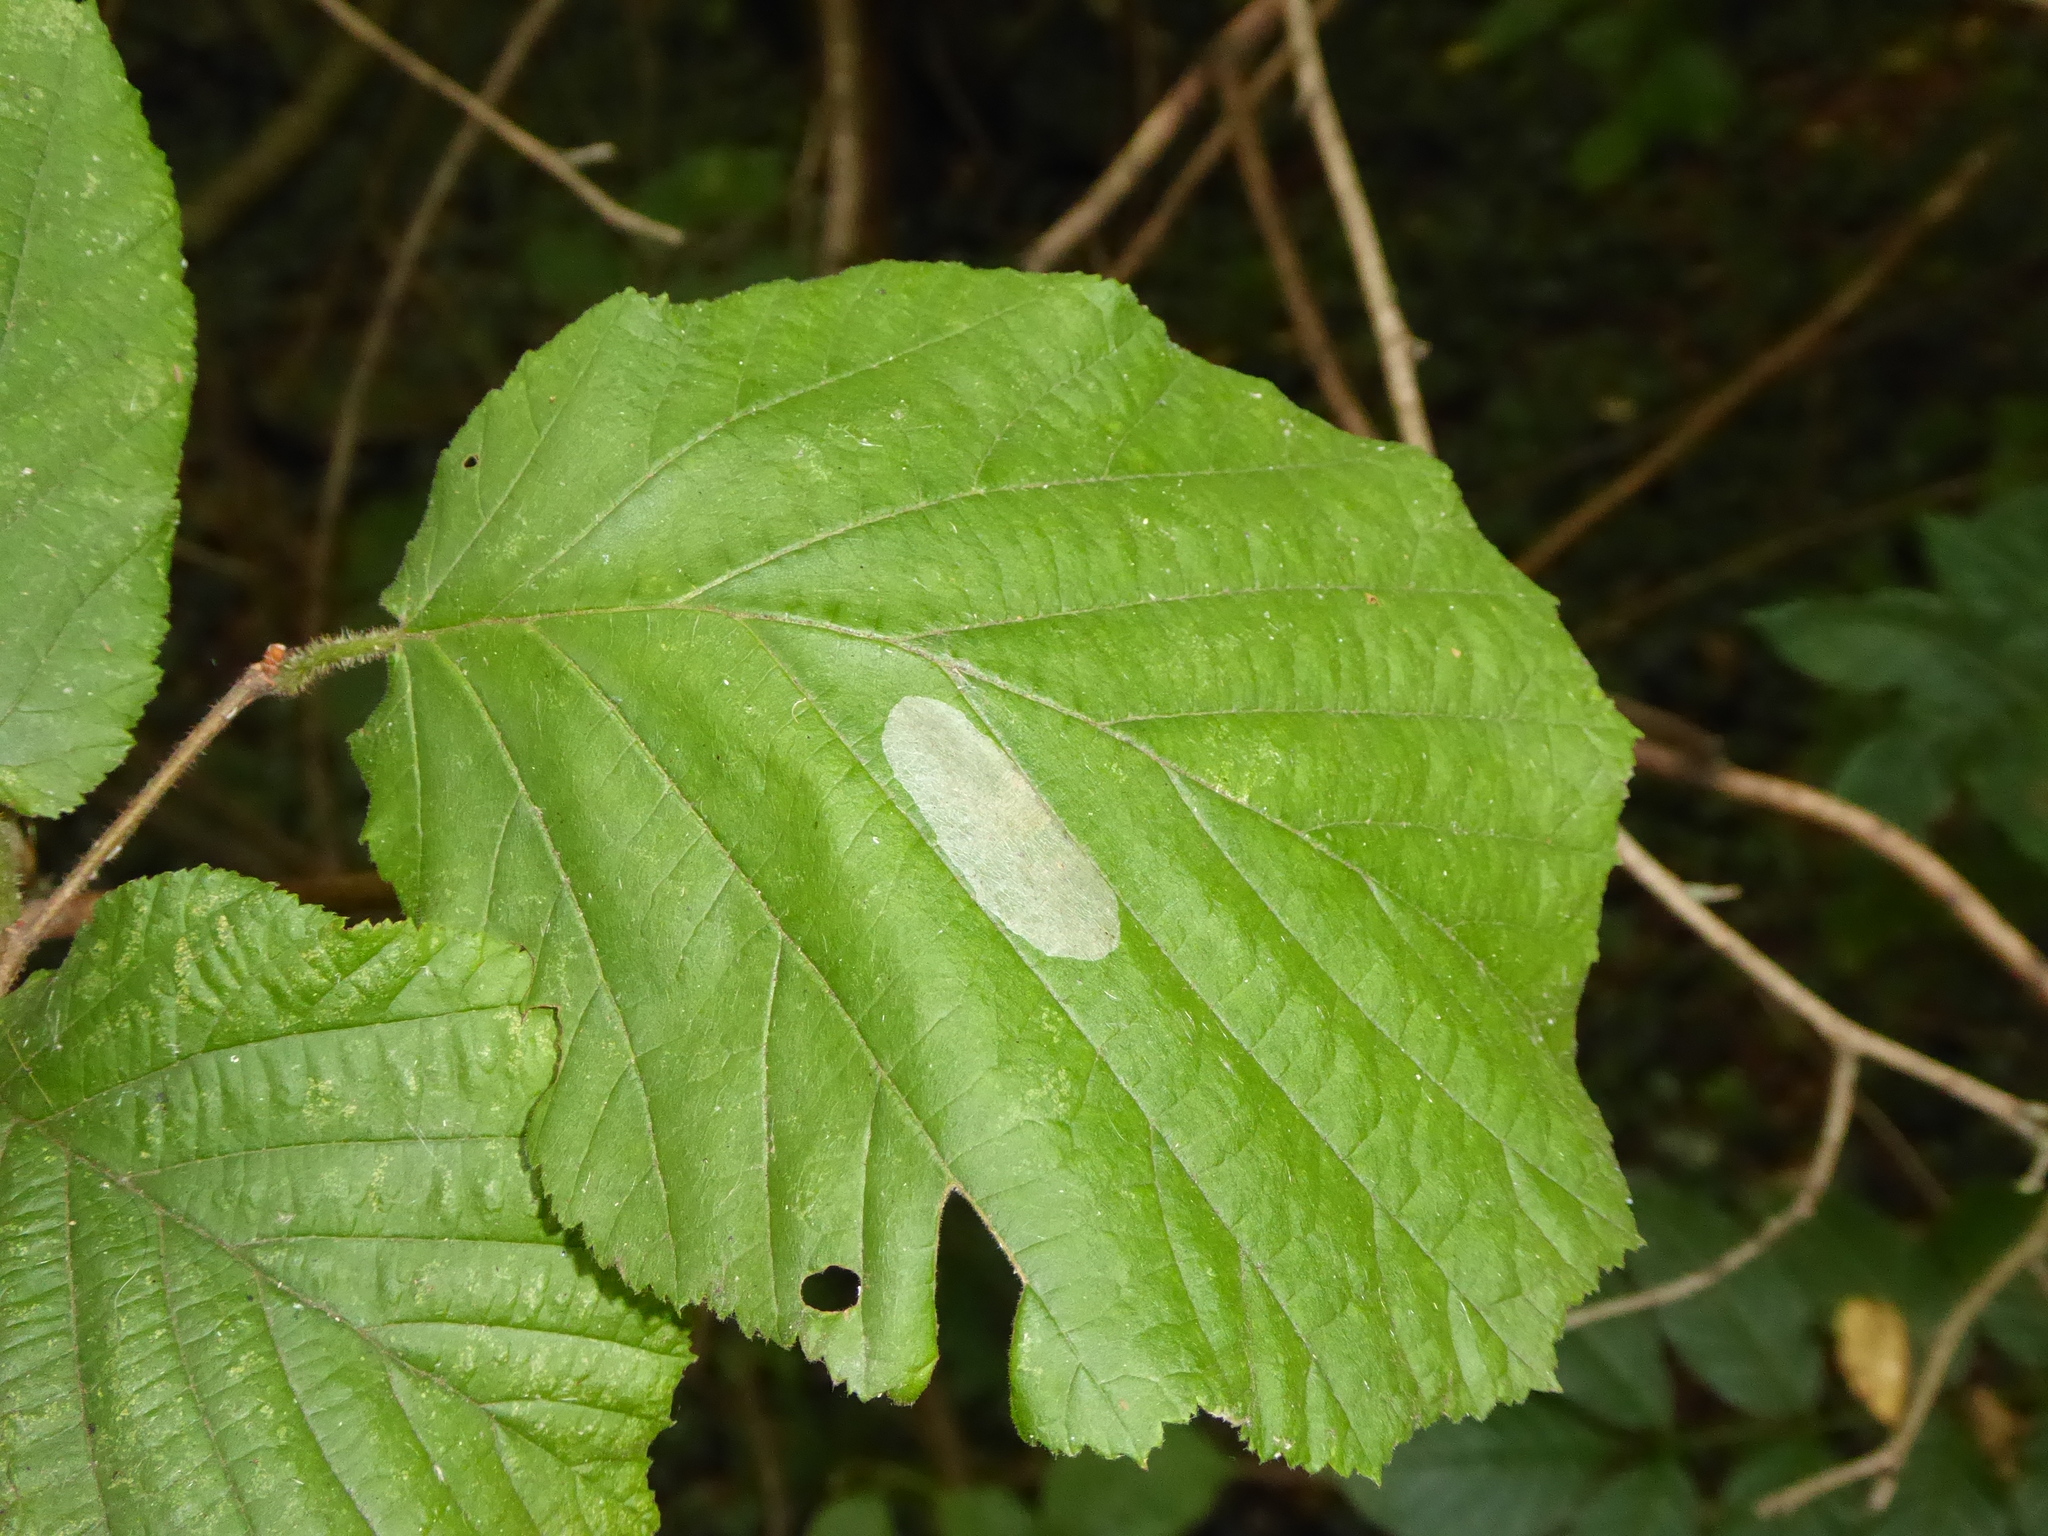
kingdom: Animalia
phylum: Arthropoda
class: Insecta
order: Lepidoptera
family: Gracillariidae
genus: Phyllonorycter
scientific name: Phyllonorycter coryli
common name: Nut-leaf blister moth
